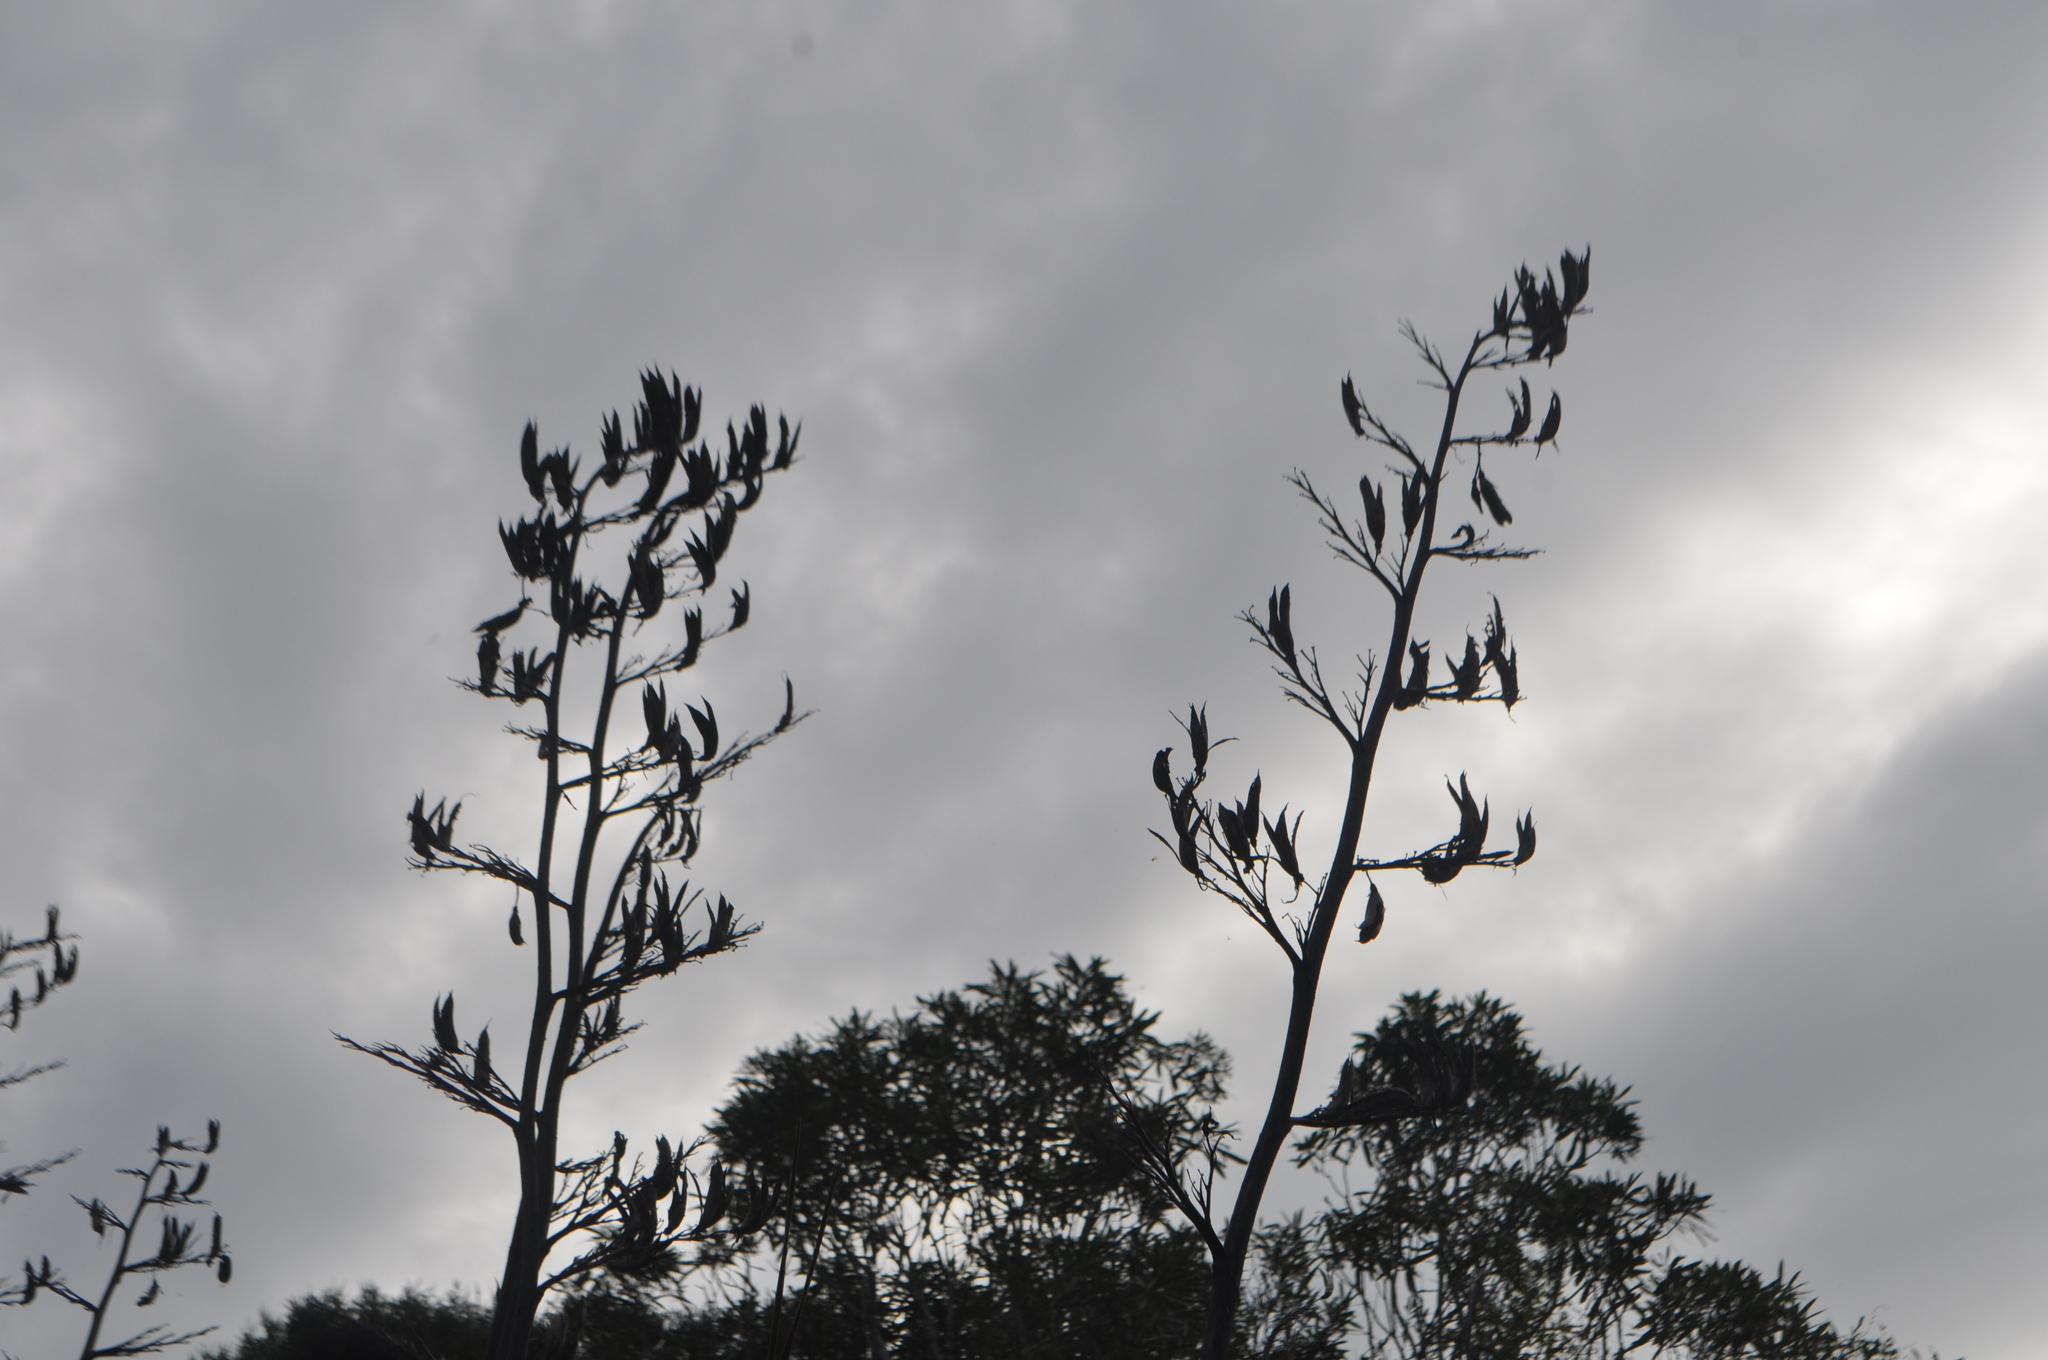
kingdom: Plantae
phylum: Tracheophyta
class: Liliopsida
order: Asparagales
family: Asphodelaceae
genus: Phormium
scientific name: Phormium tenax
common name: New zealand flax
